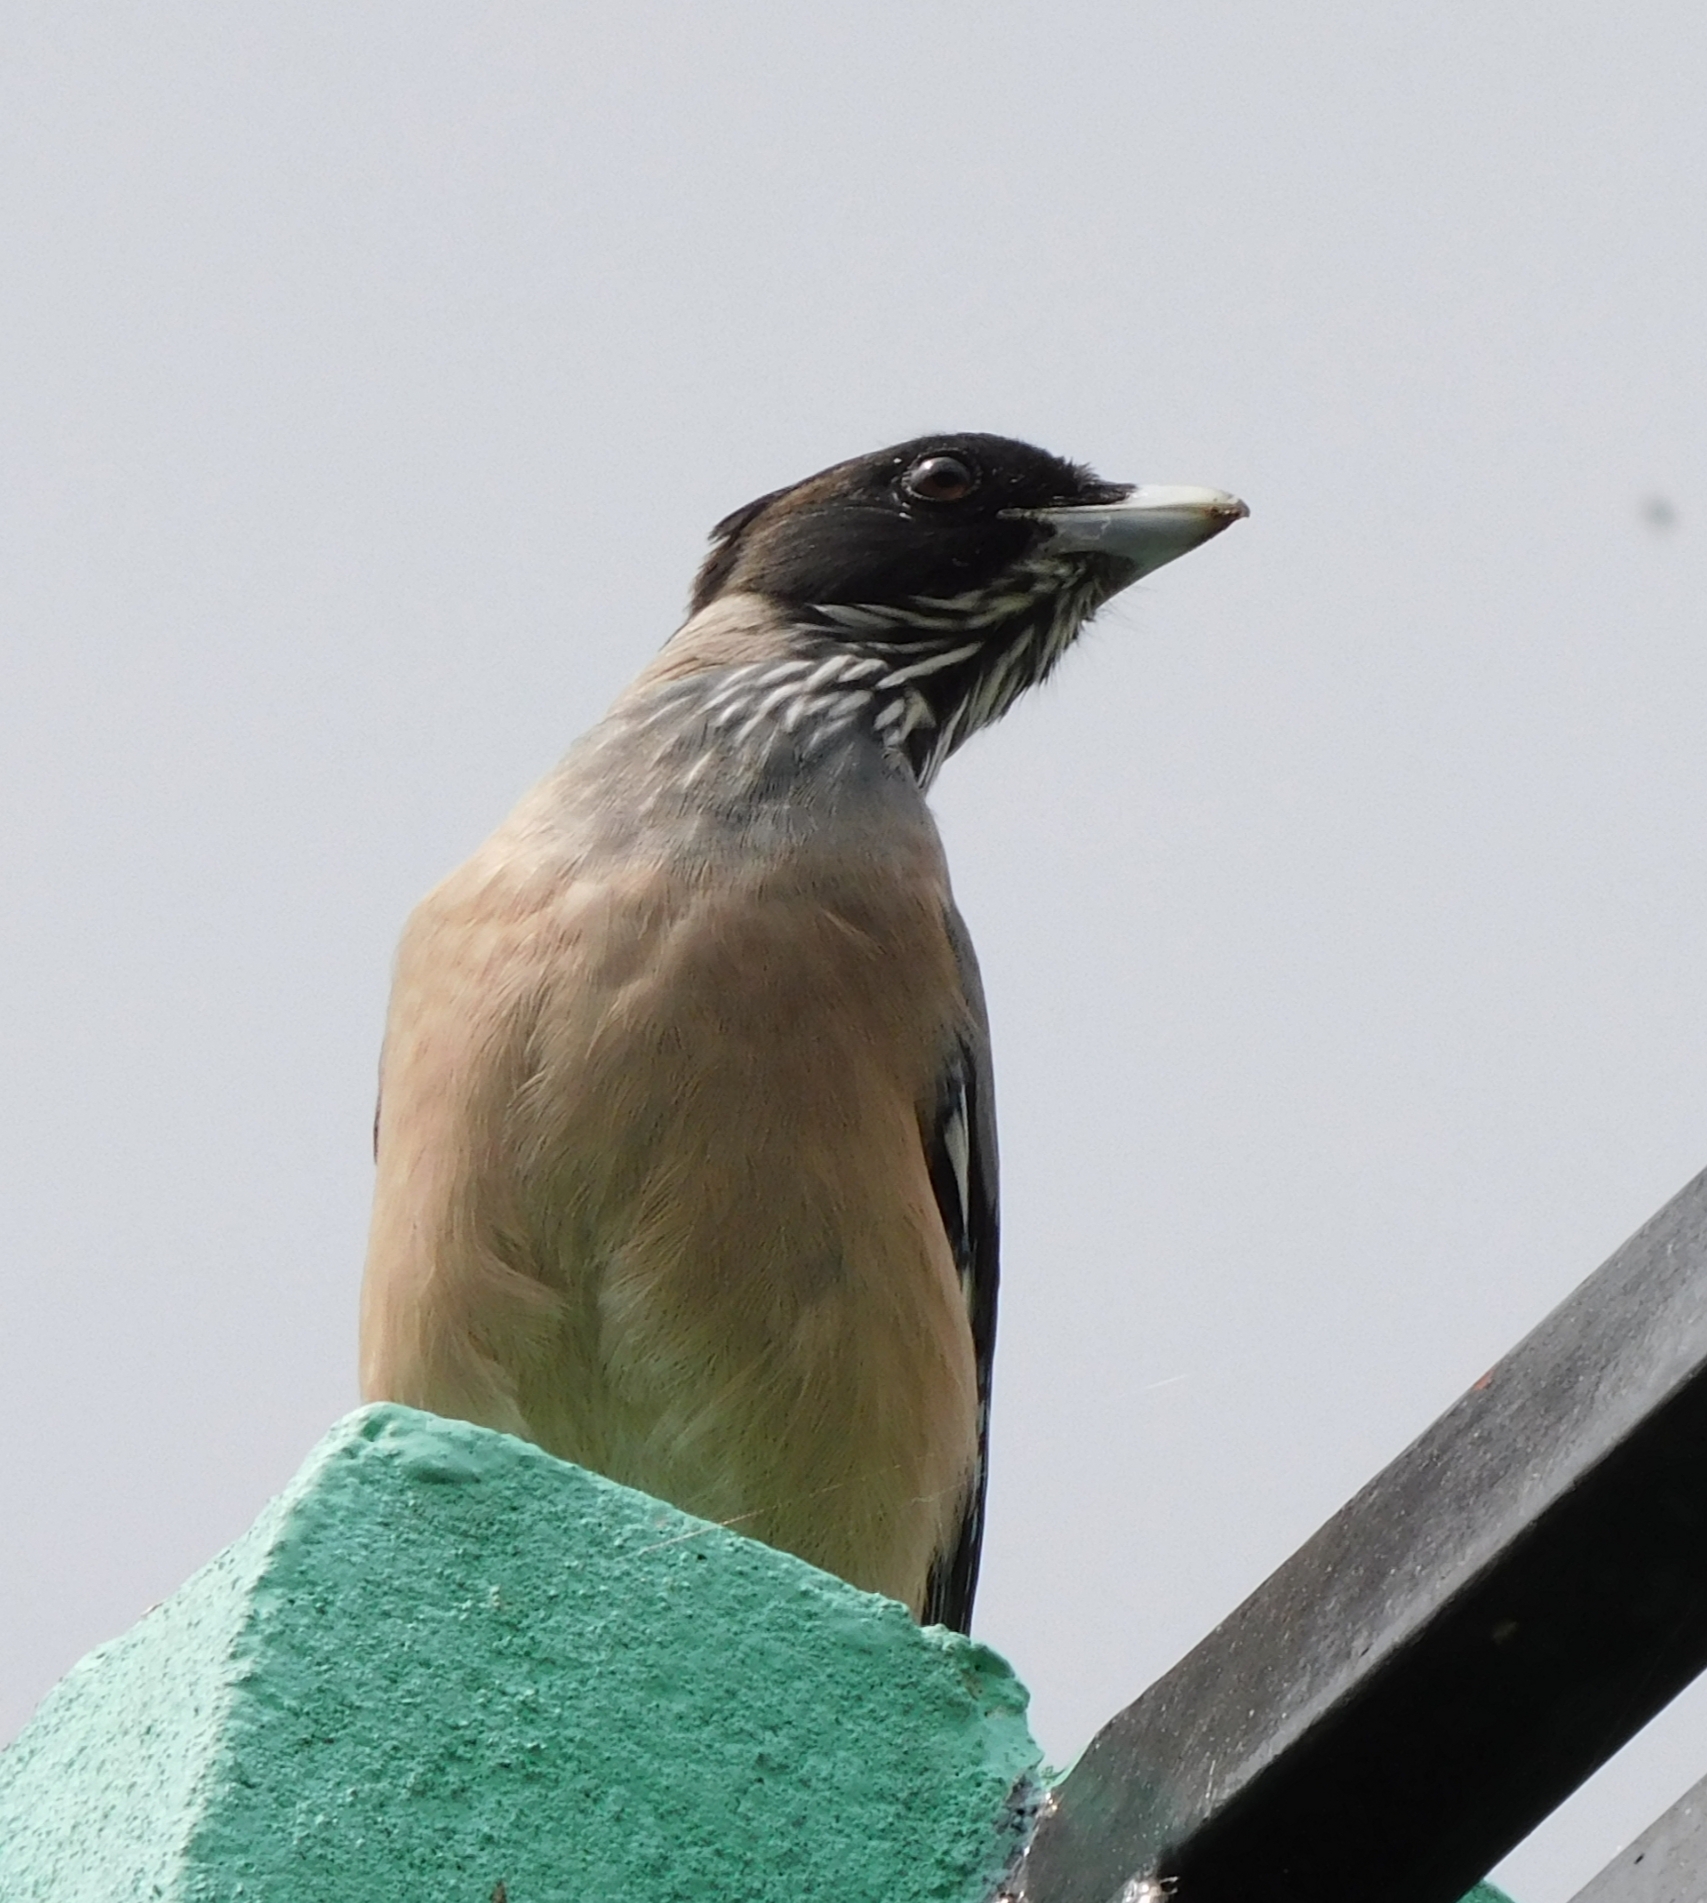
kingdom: Animalia
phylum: Chordata
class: Aves
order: Passeriformes
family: Corvidae
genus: Garrulus
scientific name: Garrulus lanceolatus
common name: Black-headed jay
